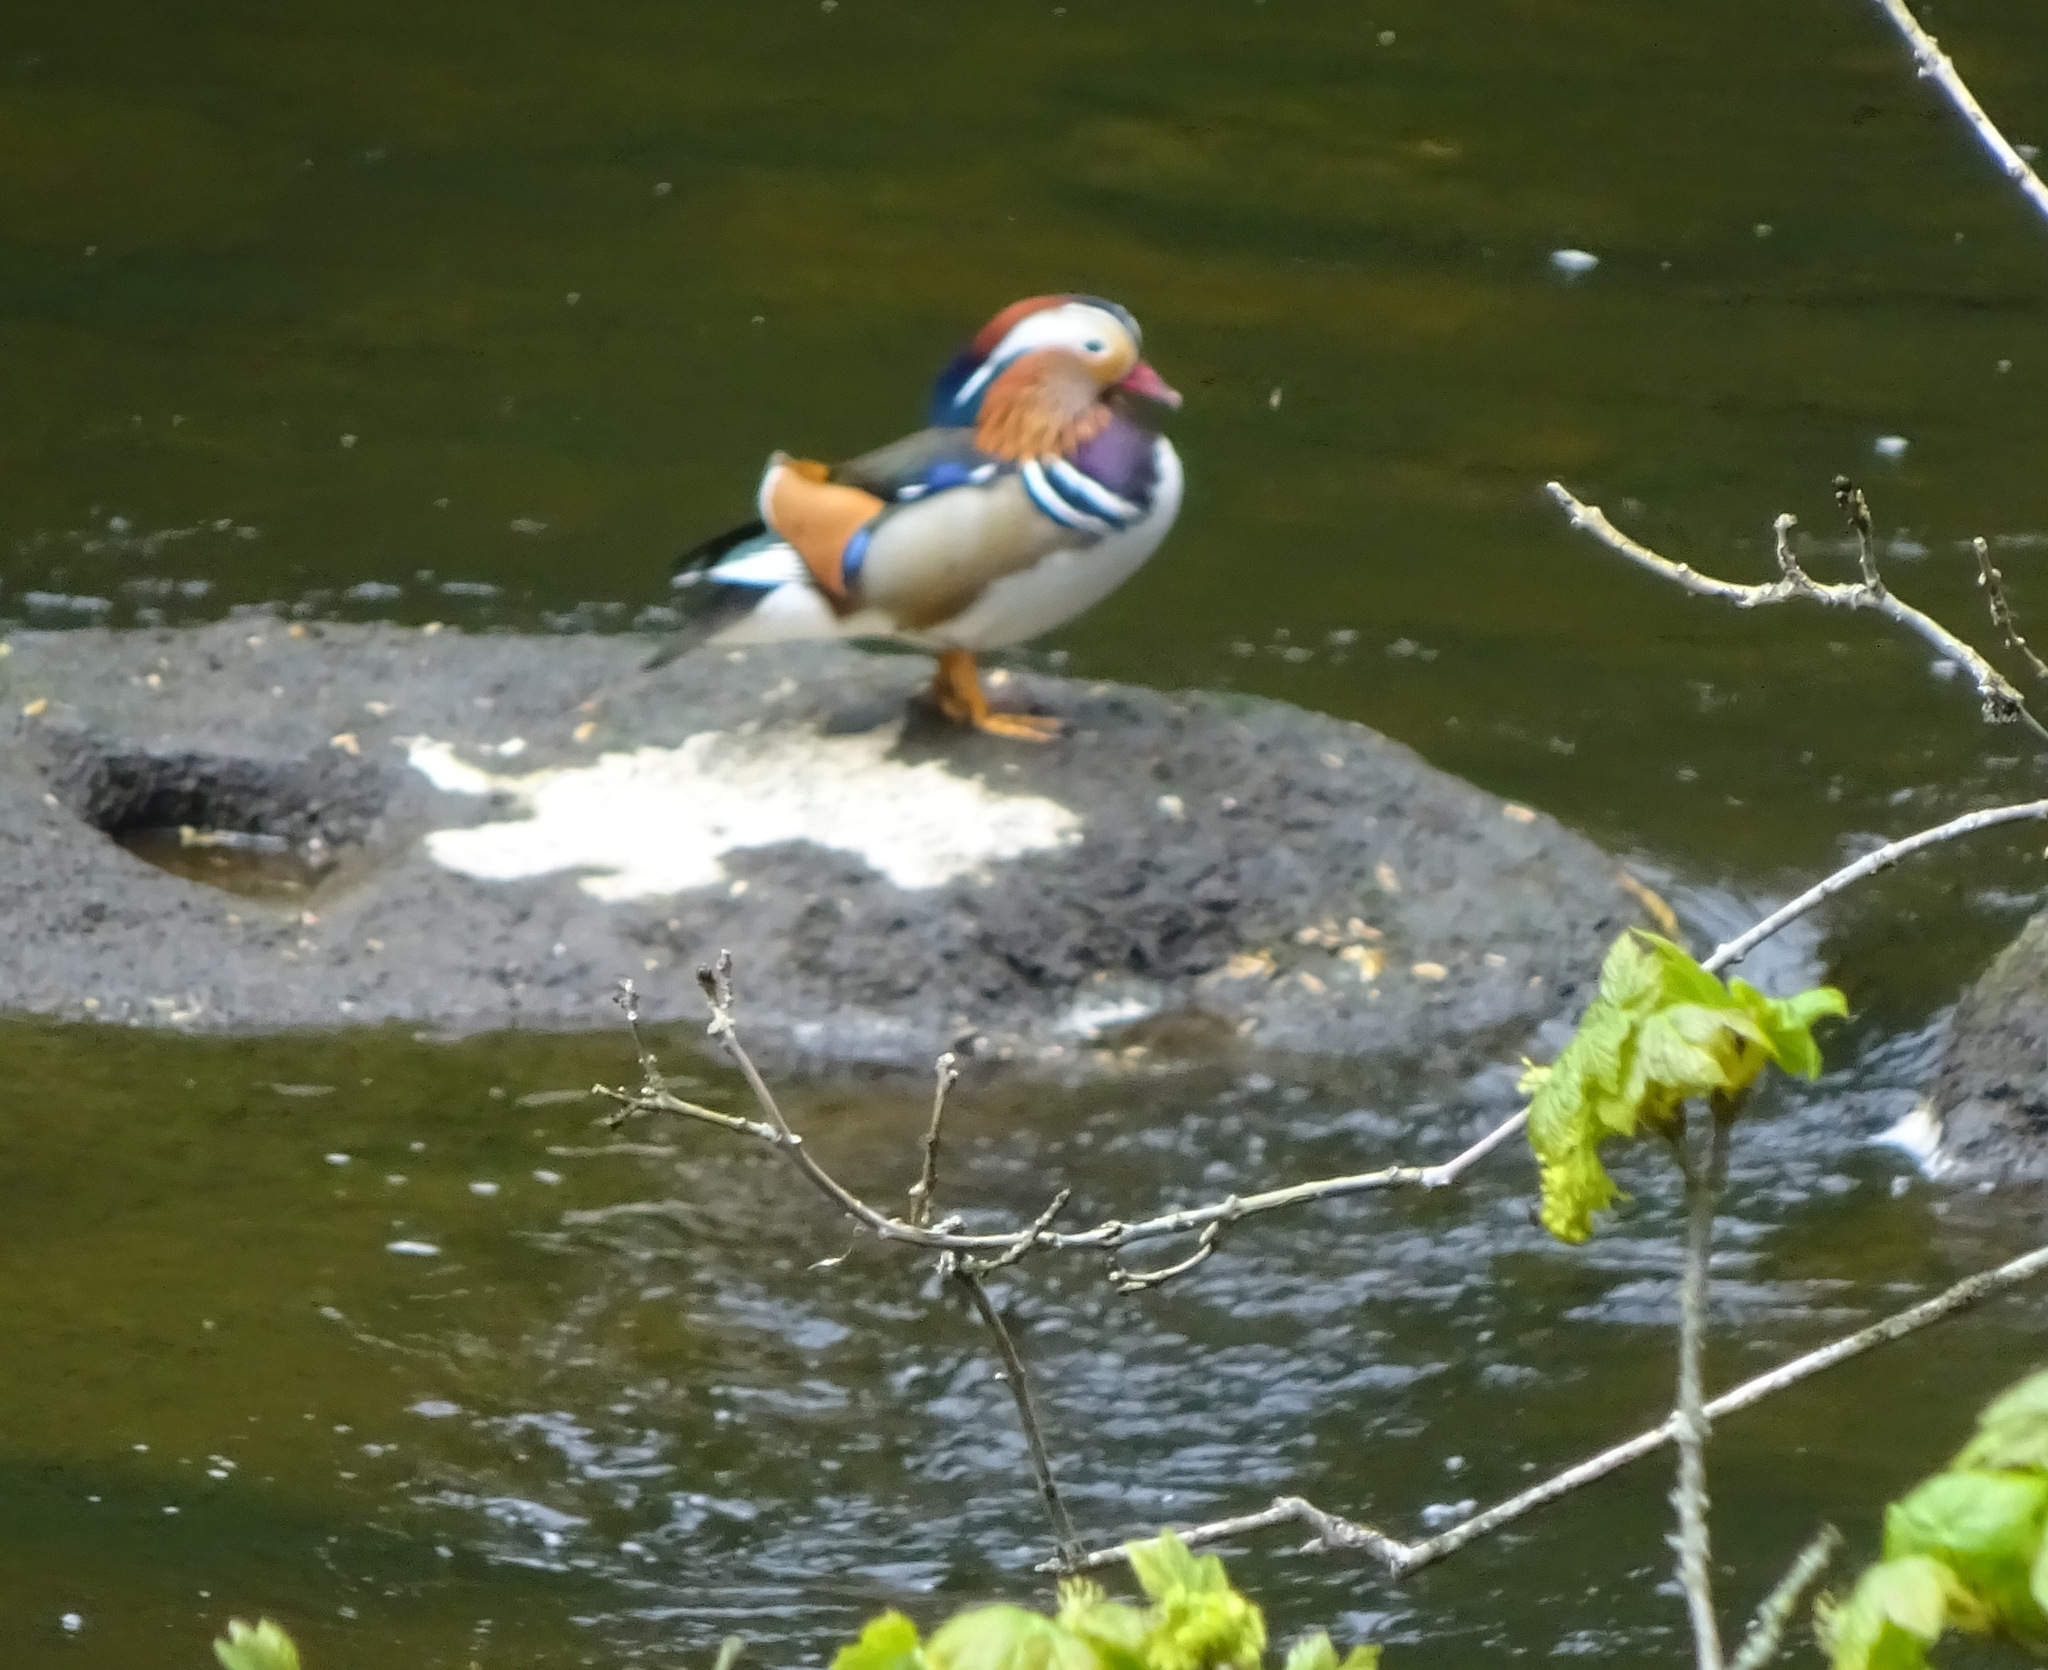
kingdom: Animalia
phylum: Chordata
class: Aves
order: Anseriformes
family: Anatidae
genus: Aix
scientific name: Aix galericulata
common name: Mandarin duck
